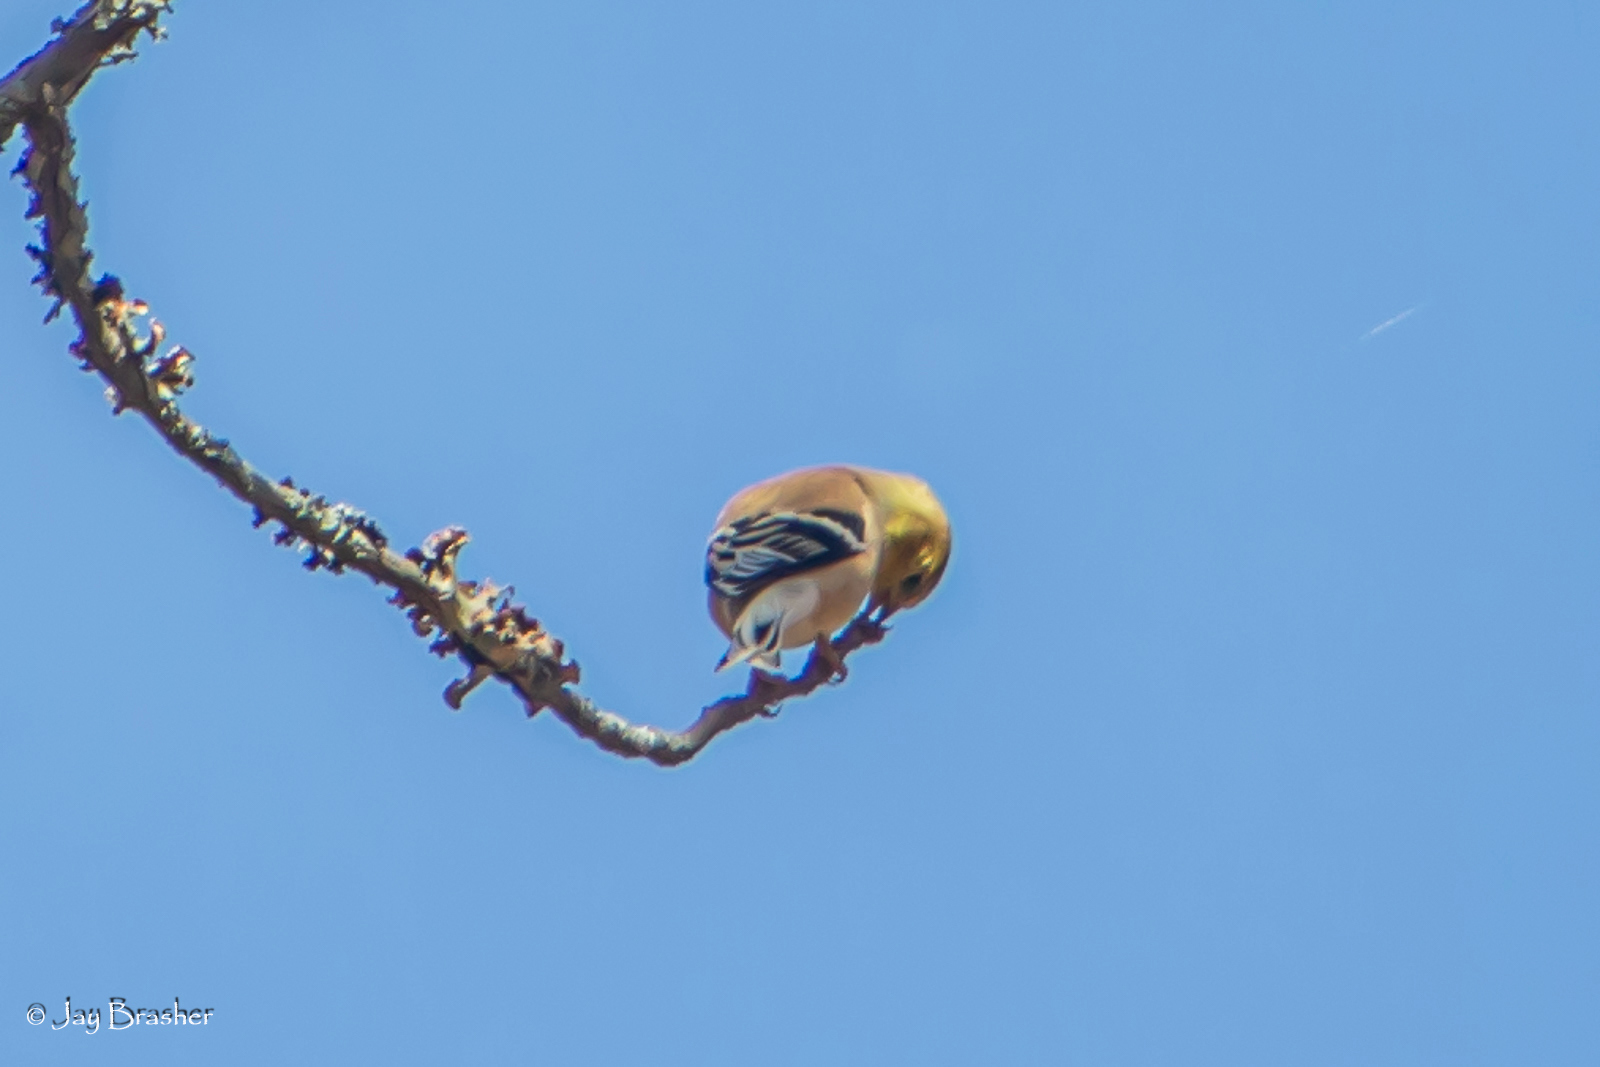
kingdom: Animalia
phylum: Chordata
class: Aves
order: Passeriformes
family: Fringillidae
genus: Spinus
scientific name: Spinus tristis
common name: American goldfinch
